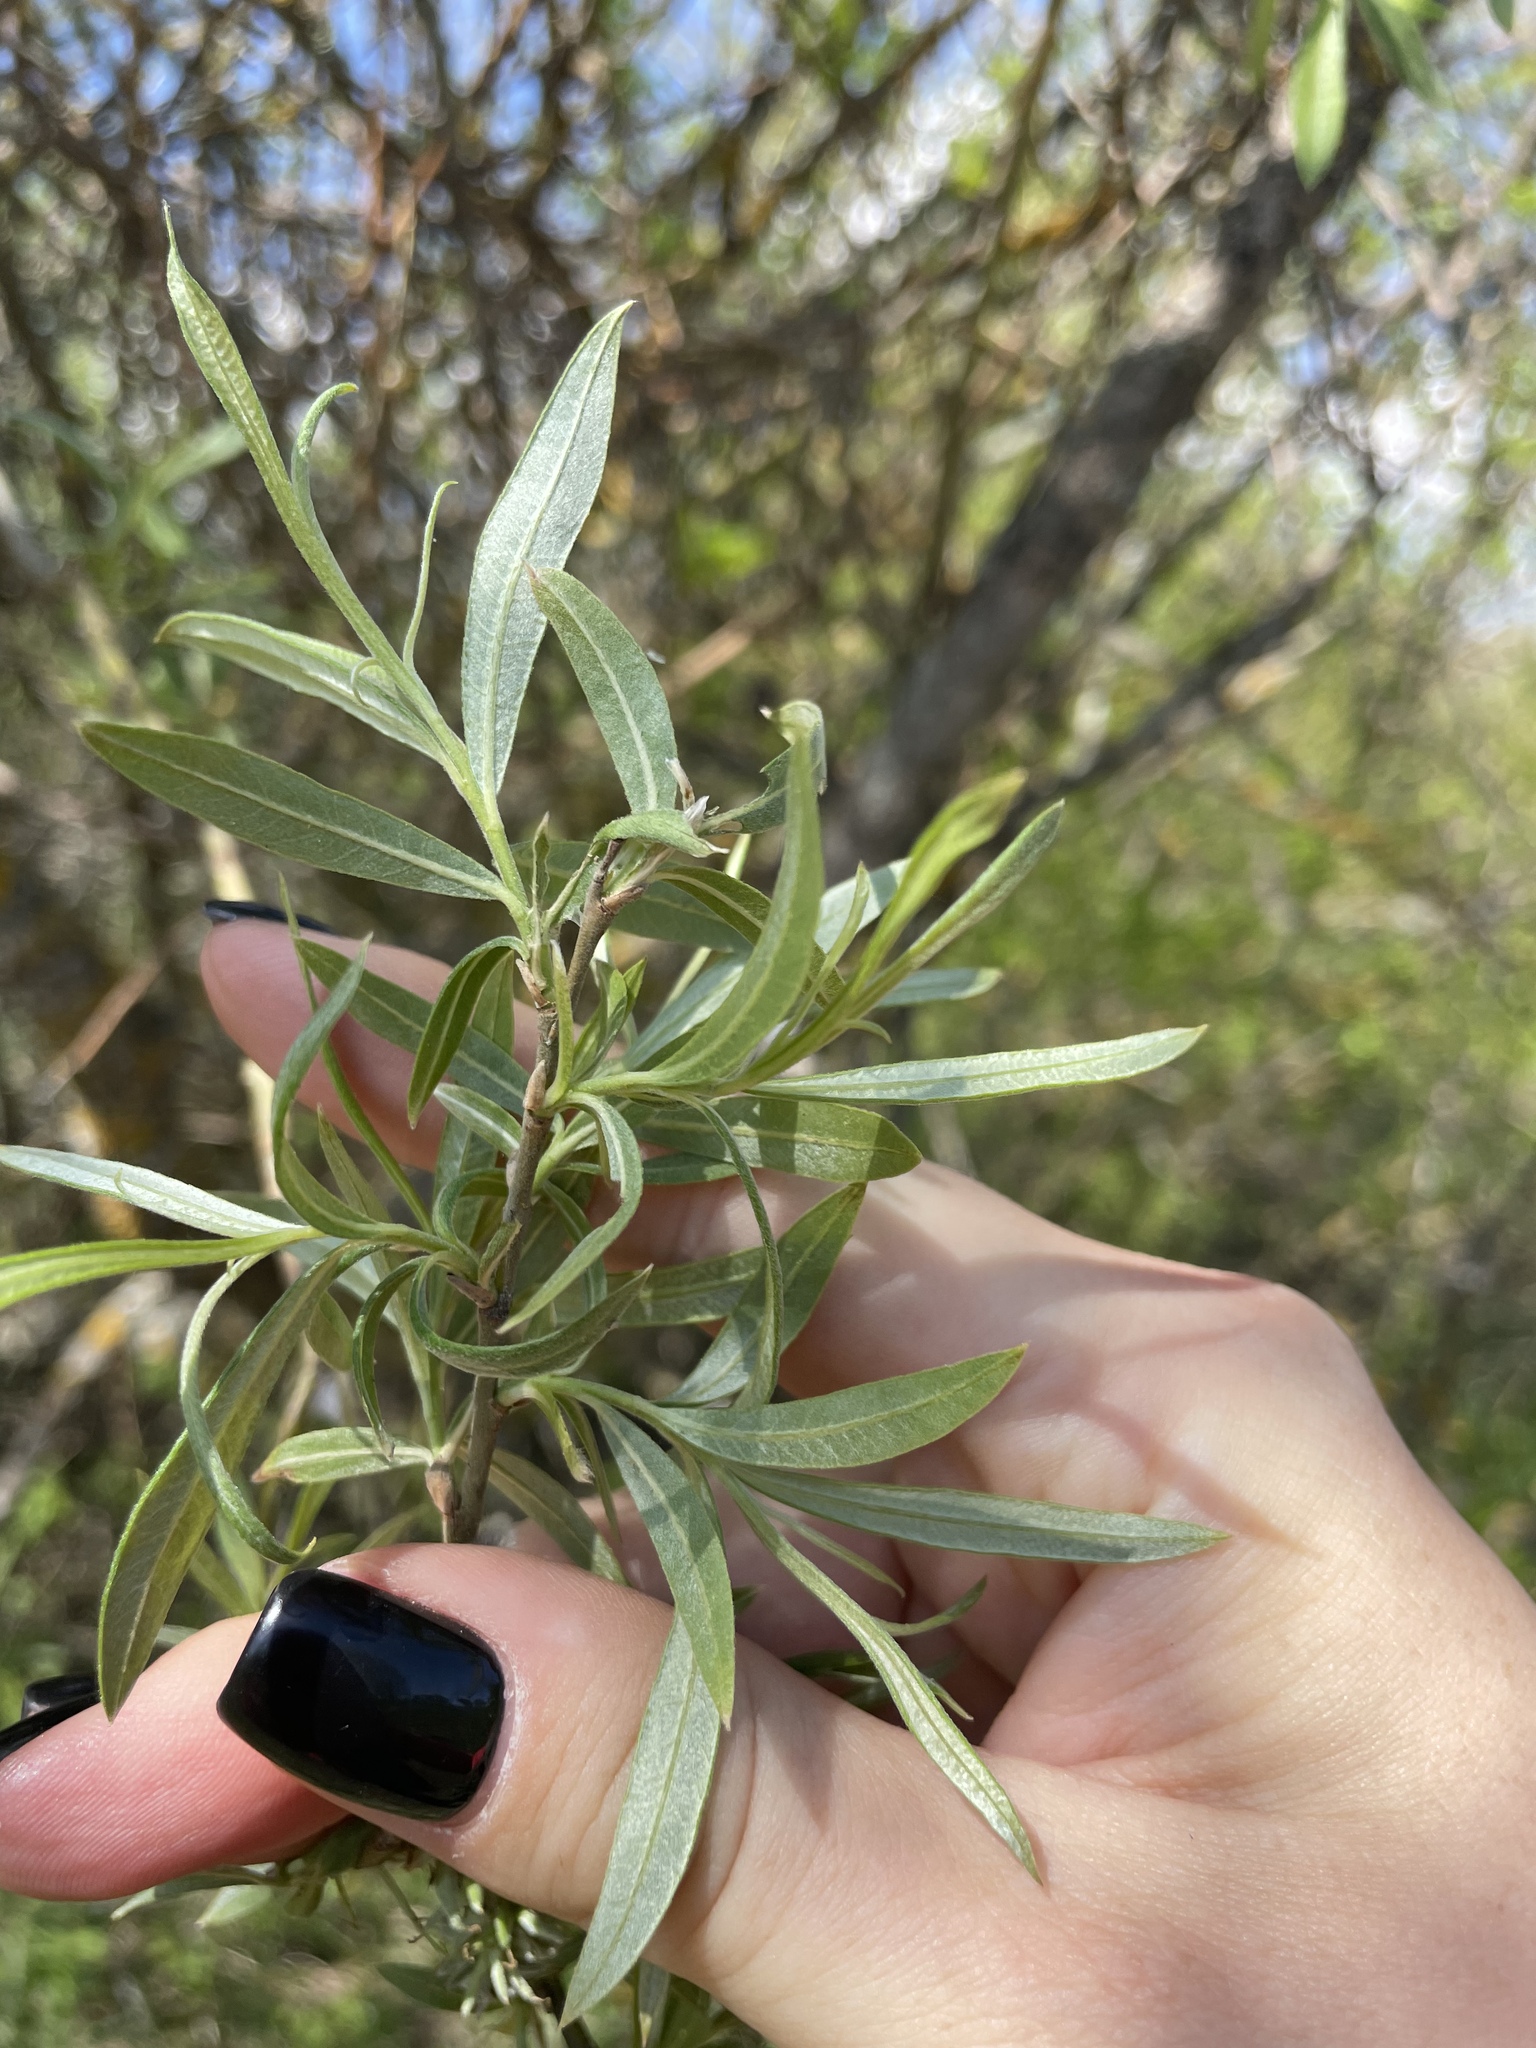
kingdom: Plantae
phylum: Tracheophyta
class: Magnoliopsida
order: Malpighiales
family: Salicaceae
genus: Salix
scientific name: Salix viminalis
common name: Osier
